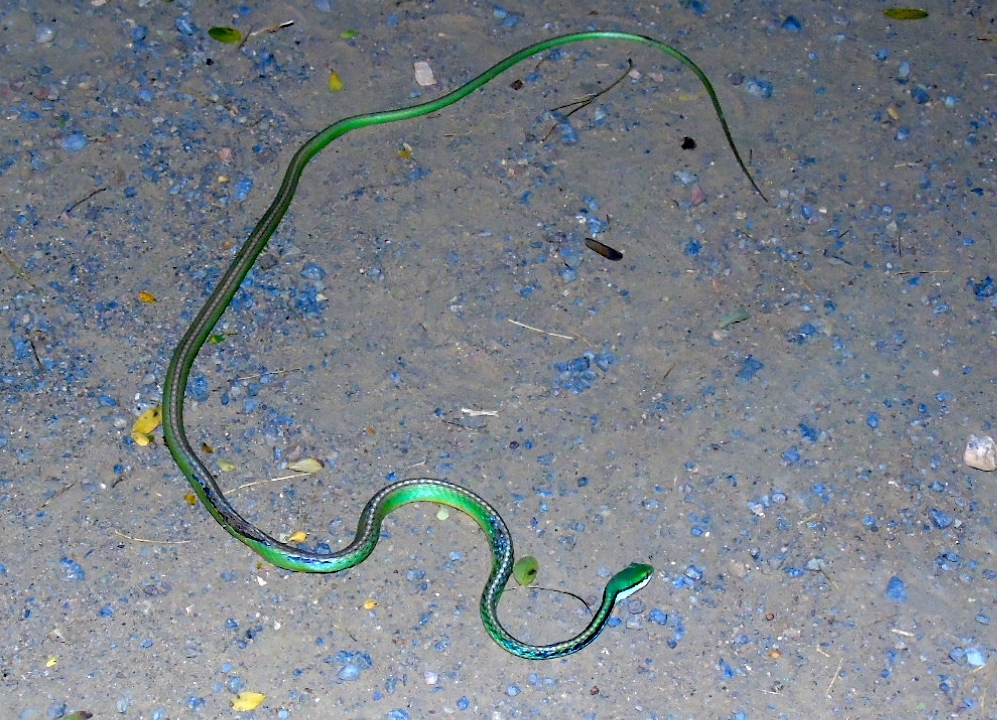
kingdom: Animalia
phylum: Chordata
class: Squamata
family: Colubridae
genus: Leptophis
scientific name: Leptophis diplotropis
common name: Pacific coast parrot snake
